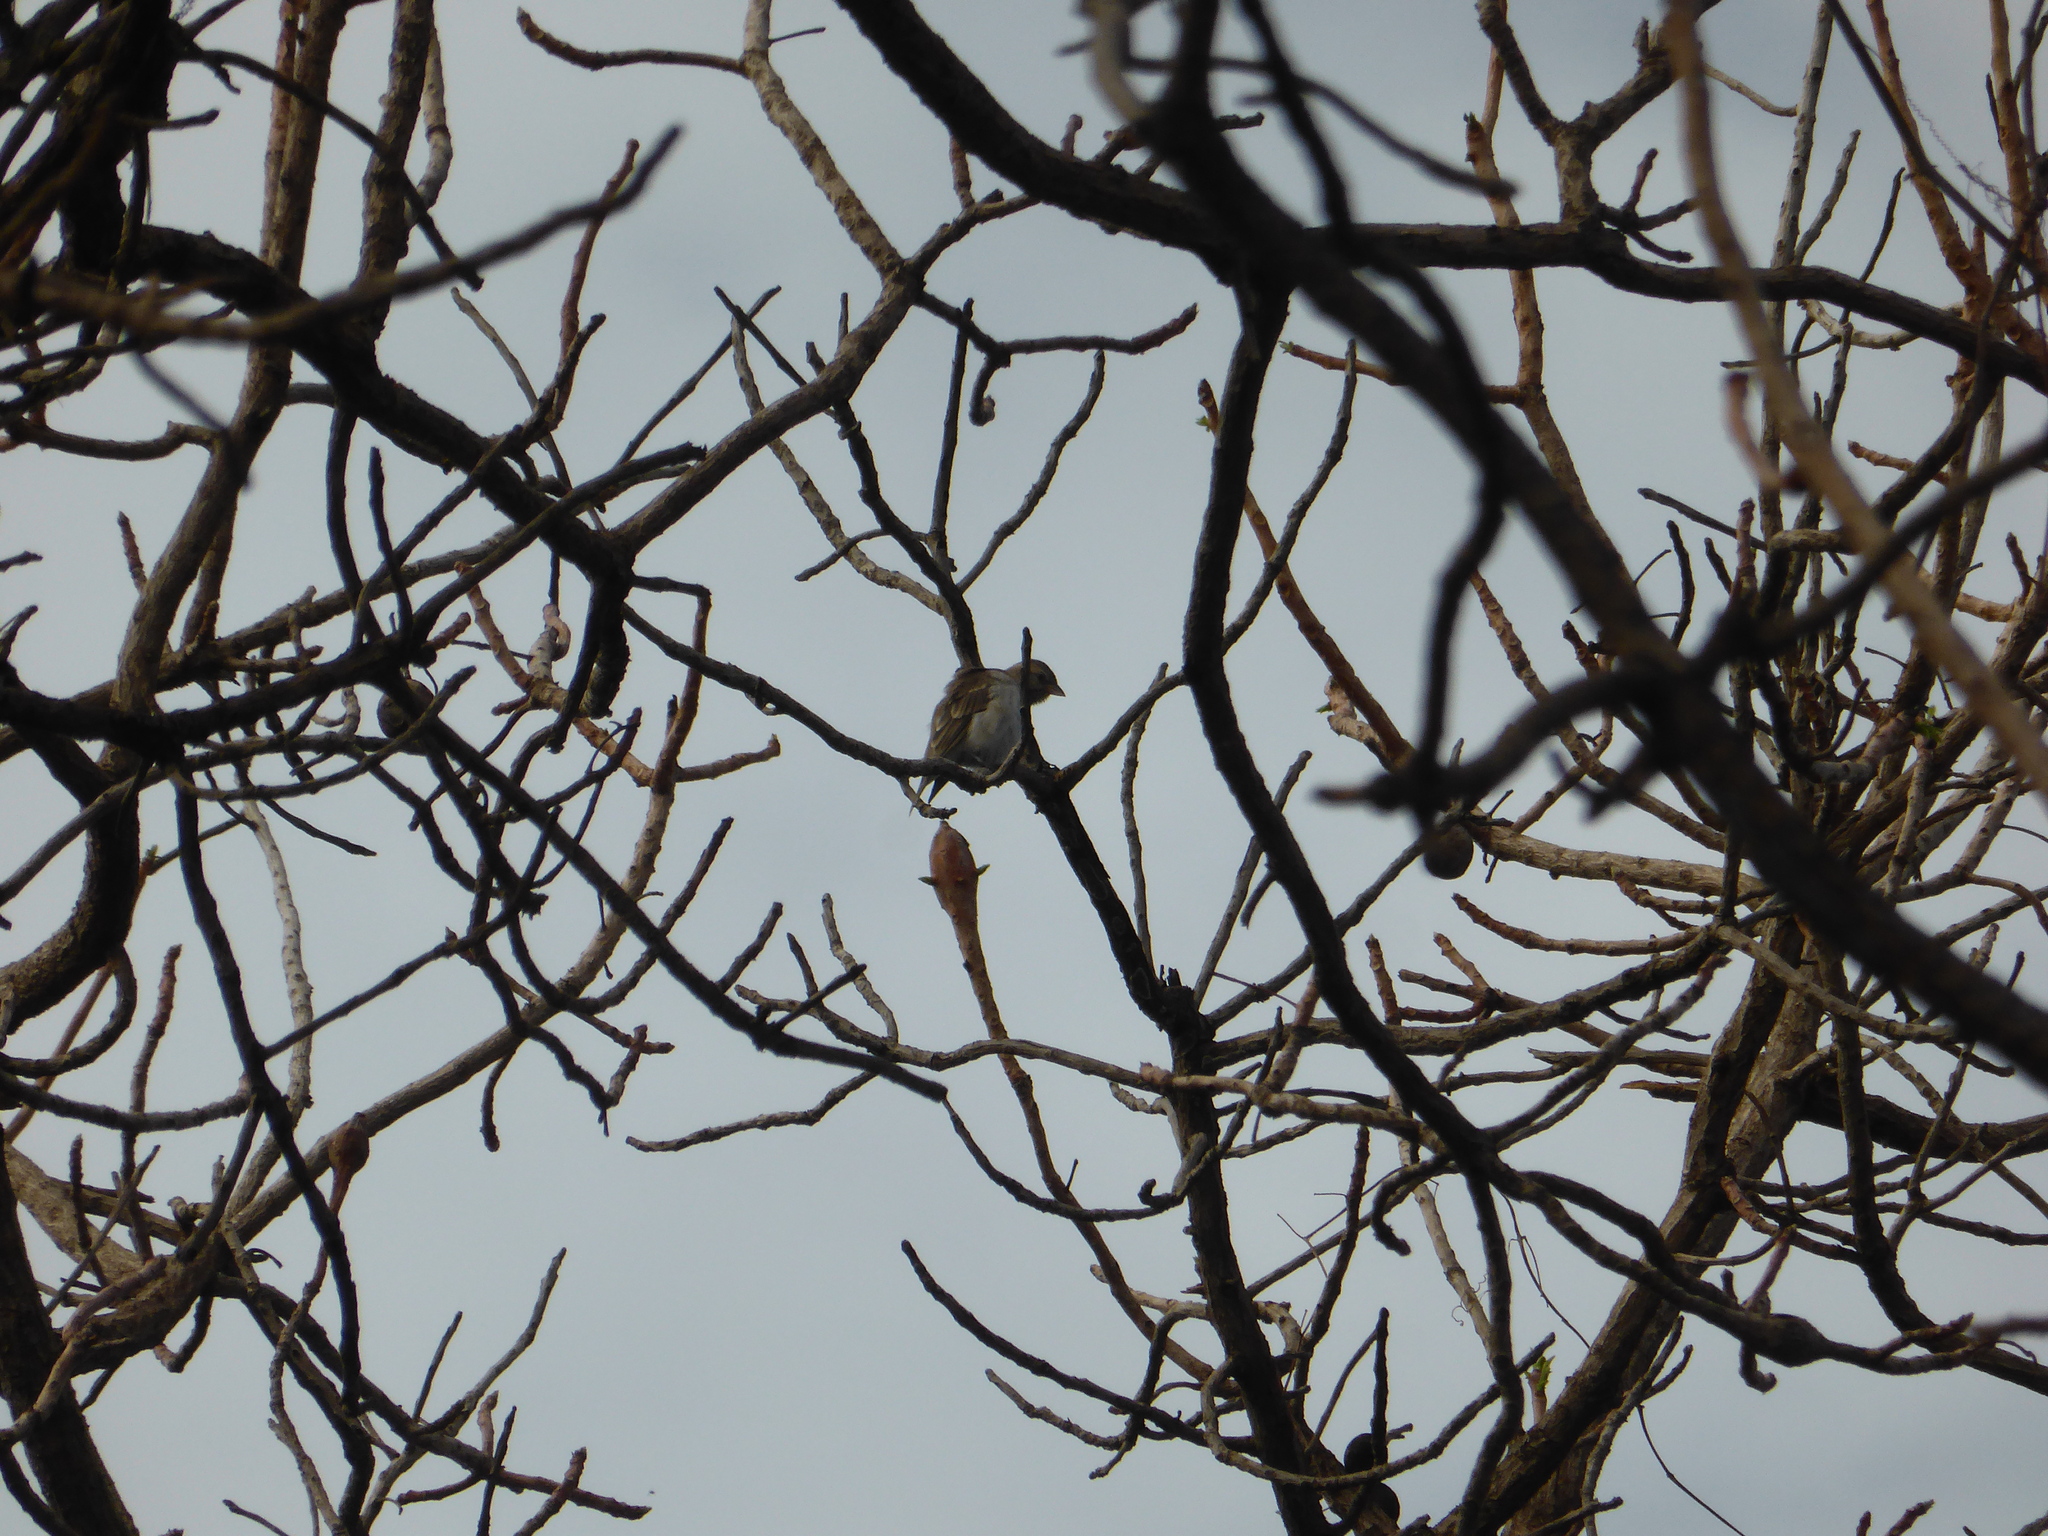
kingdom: Animalia
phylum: Chordata
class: Aves
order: Passeriformes
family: Passeridae
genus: Passer
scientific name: Passer griseus
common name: Northern grey-headed sparrow
